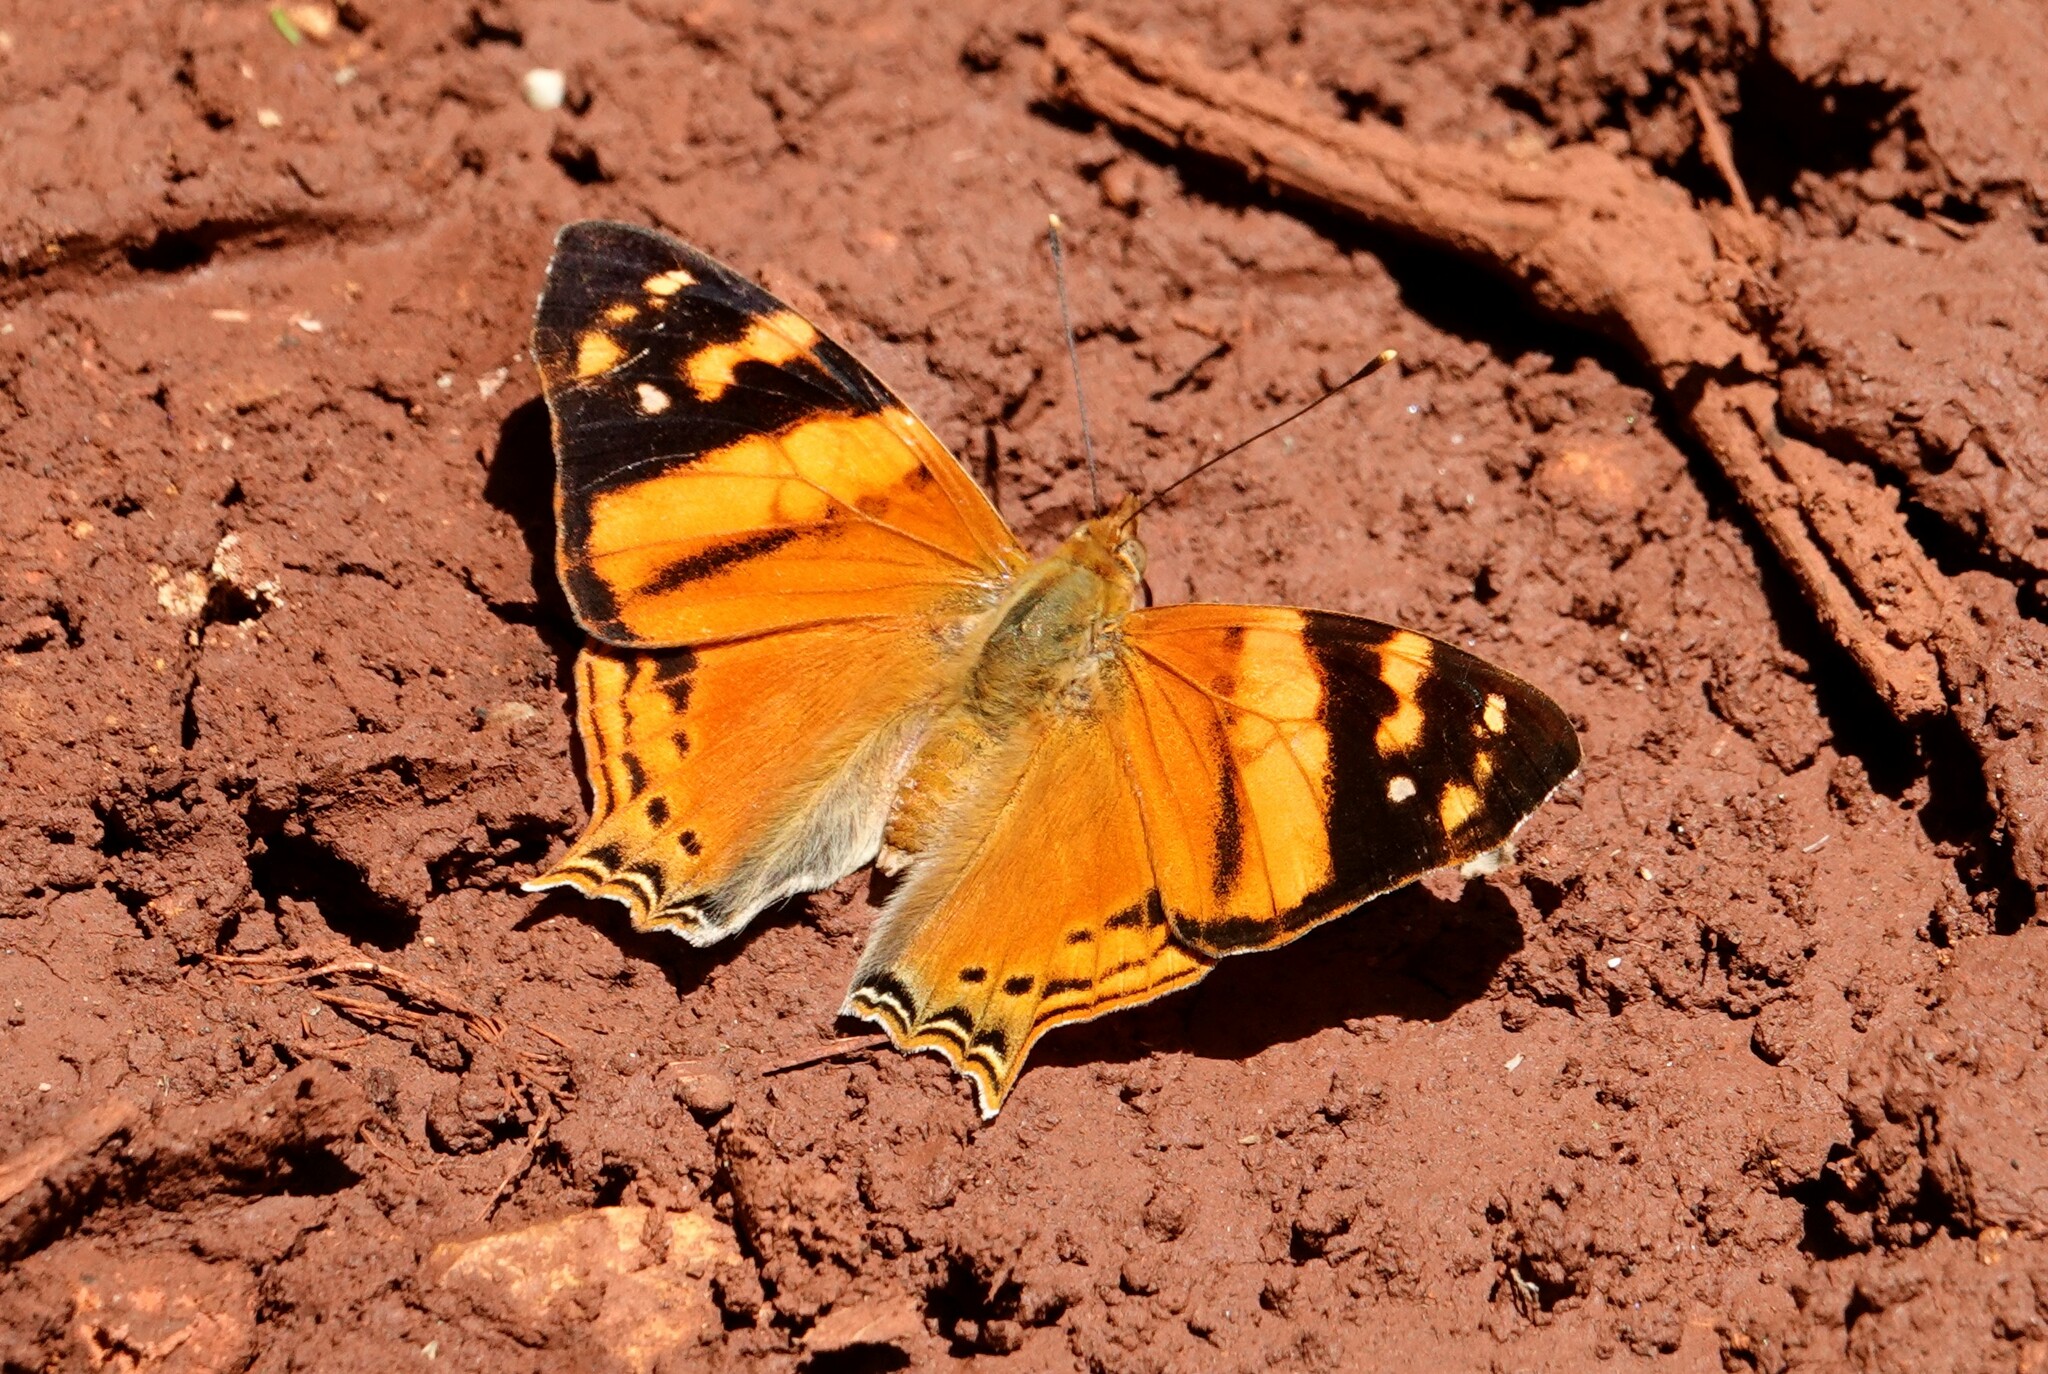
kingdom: Animalia
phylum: Arthropoda
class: Insecta
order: Lepidoptera
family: Nymphalidae
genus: Hypanartia
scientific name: Hypanartia lethe
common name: Orange mapwing
